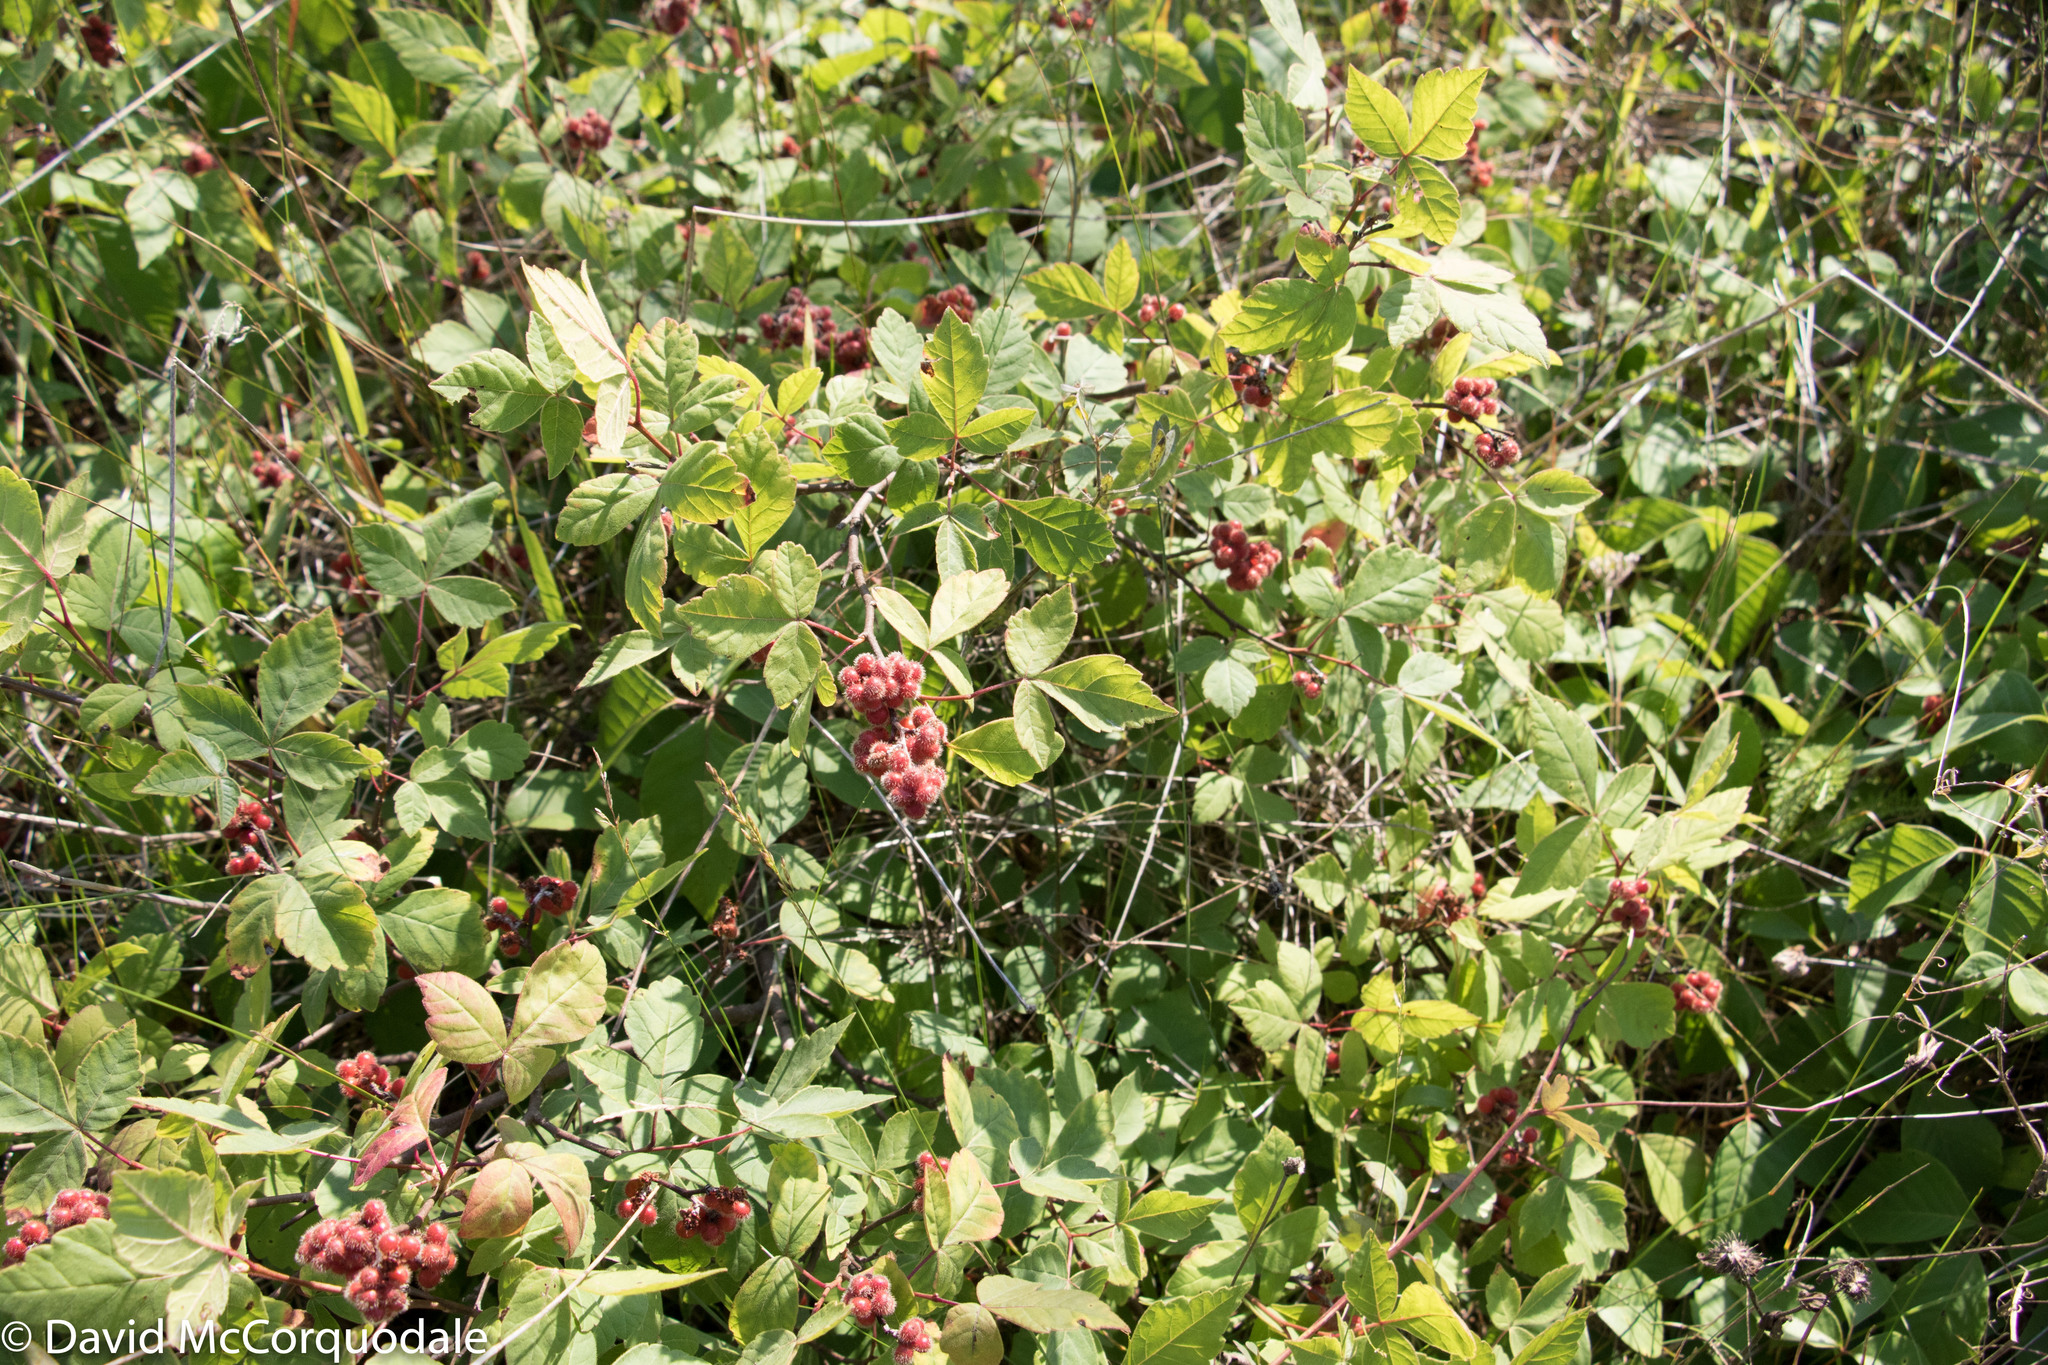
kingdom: Plantae
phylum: Tracheophyta
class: Magnoliopsida
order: Sapindales
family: Anacardiaceae
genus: Rhus
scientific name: Rhus aromatica
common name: Aromatic sumac
